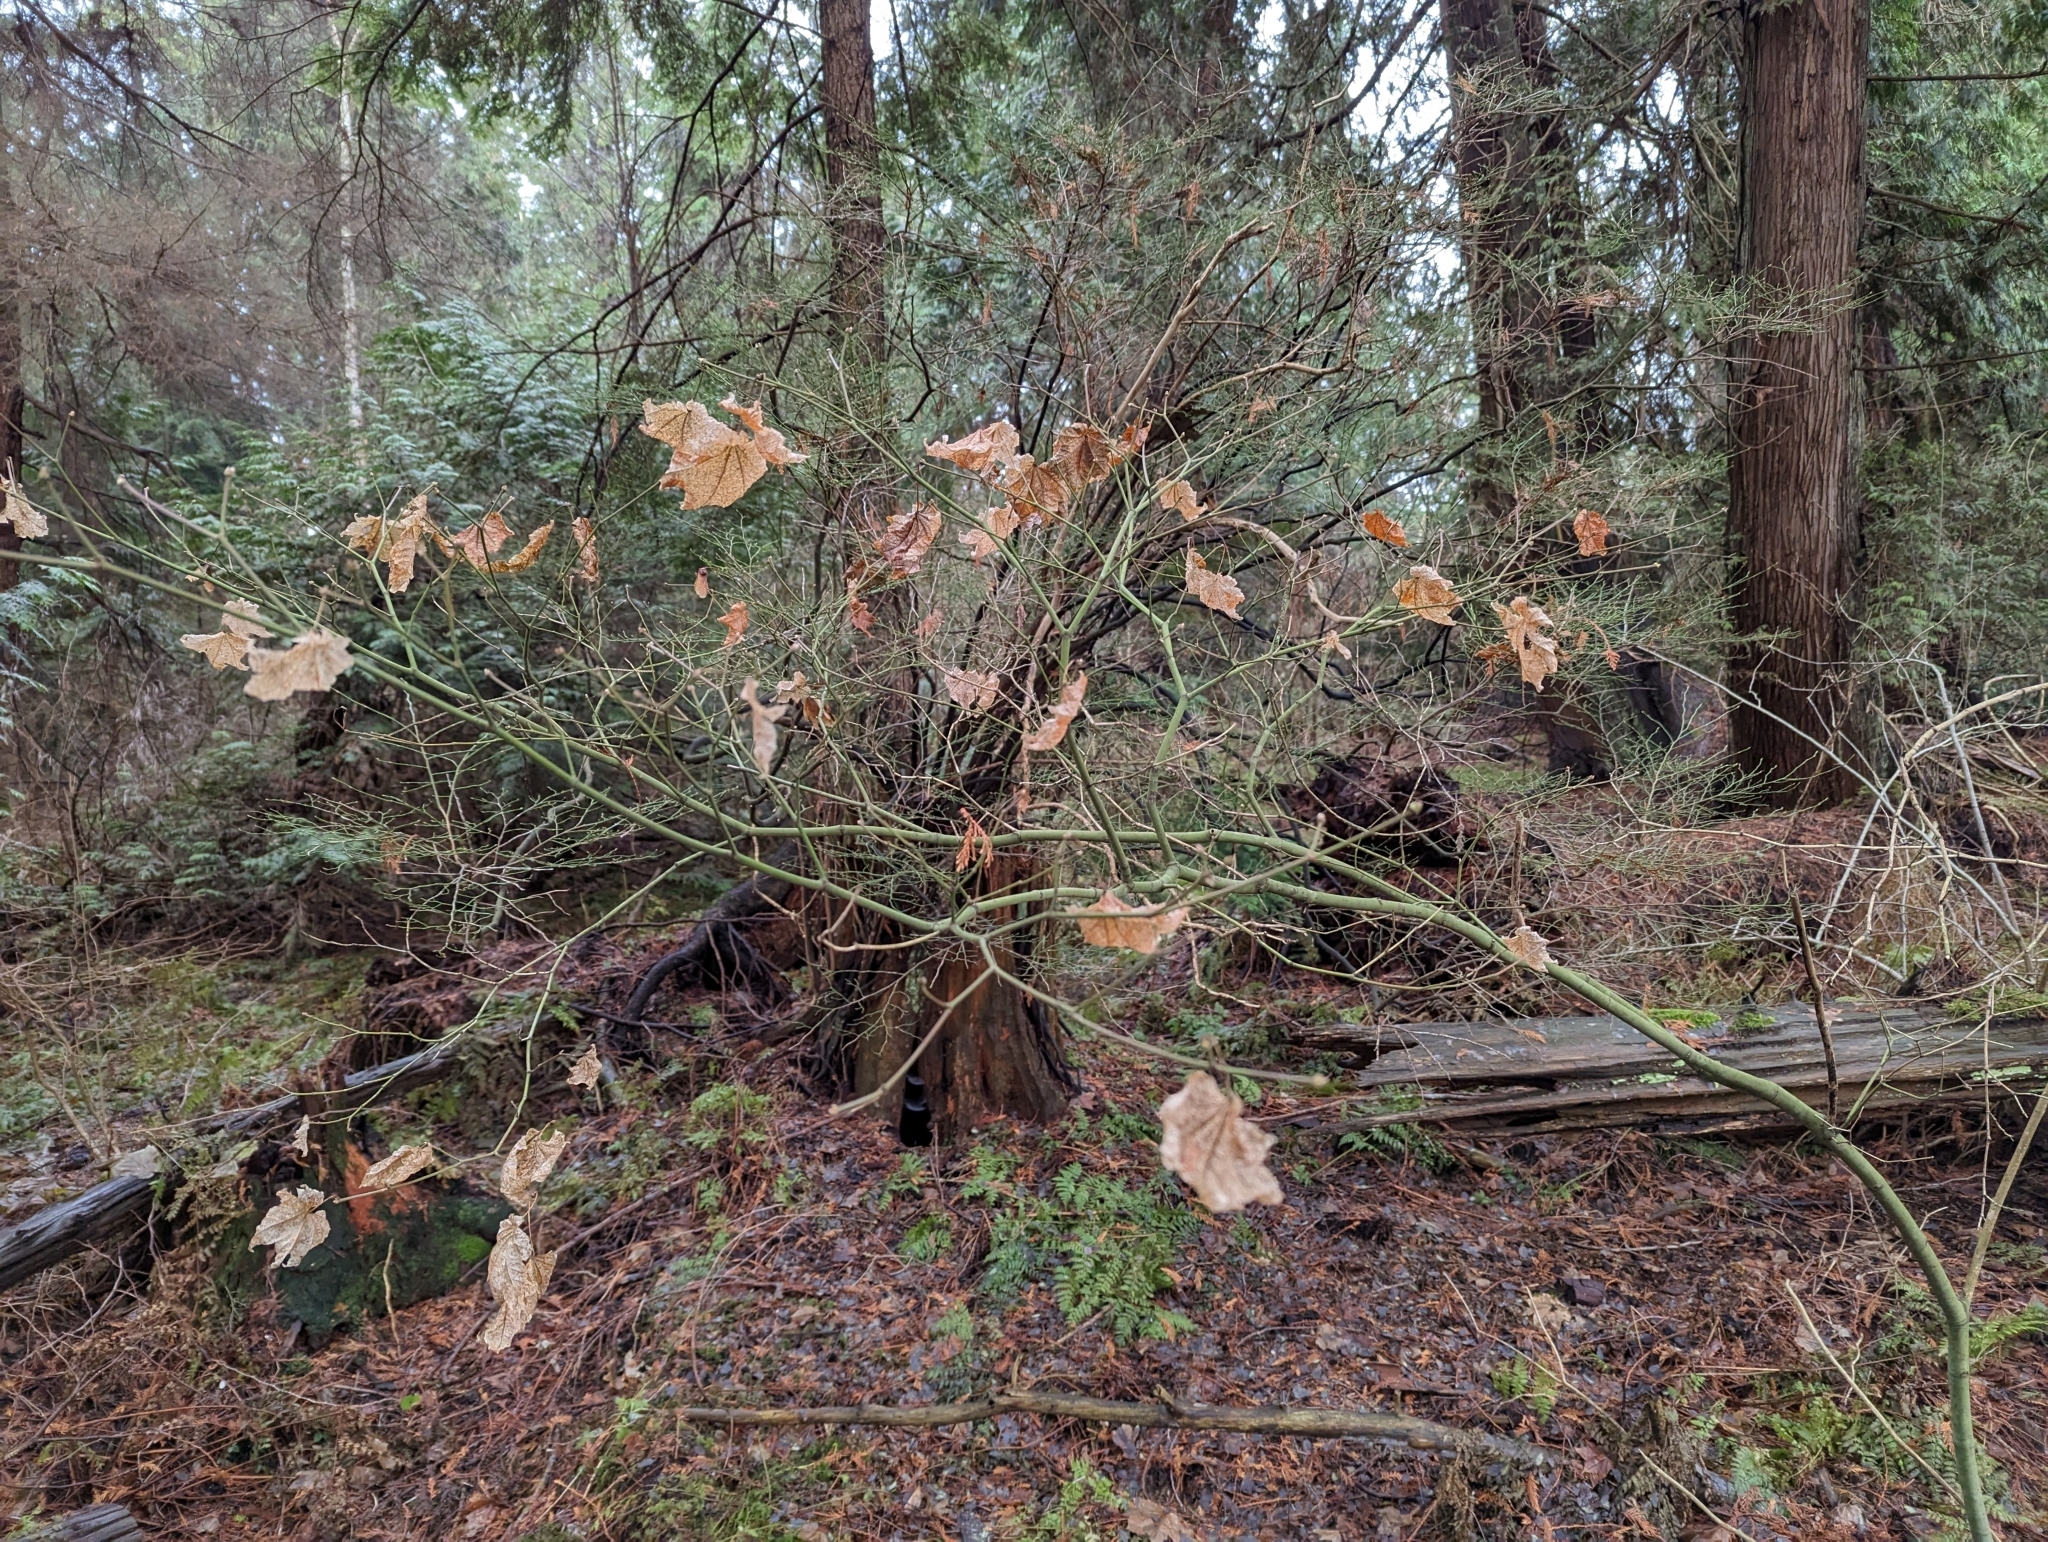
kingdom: Plantae
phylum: Tracheophyta
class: Magnoliopsida
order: Sapindales
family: Sapindaceae
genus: Acer
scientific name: Acer circinatum
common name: Vine maple
